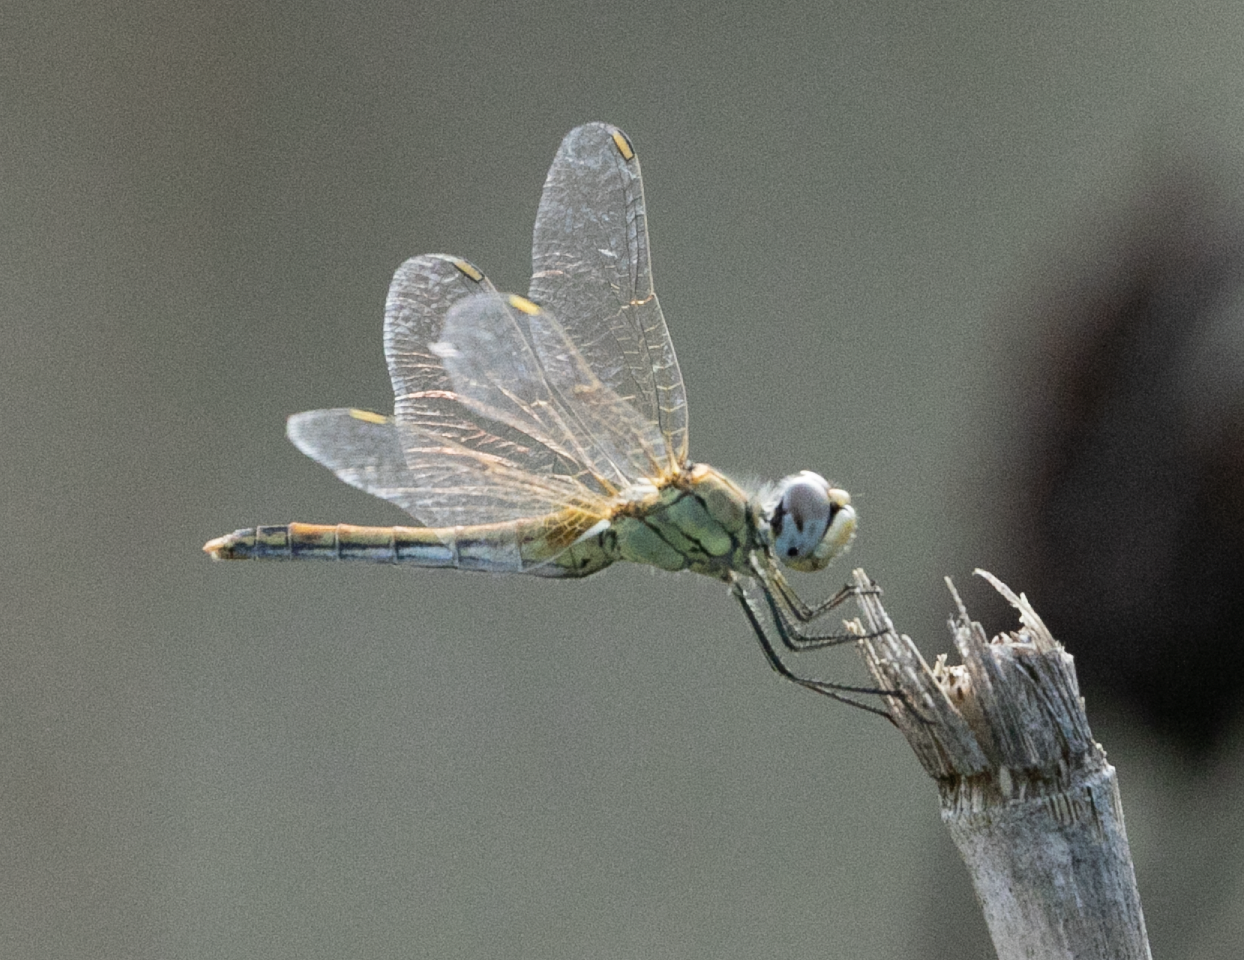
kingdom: Animalia
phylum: Arthropoda
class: Insecta
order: Odonata
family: Libellulidae
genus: Sympetrum
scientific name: Sympetrum fonscolombii
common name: Red-veined darter
